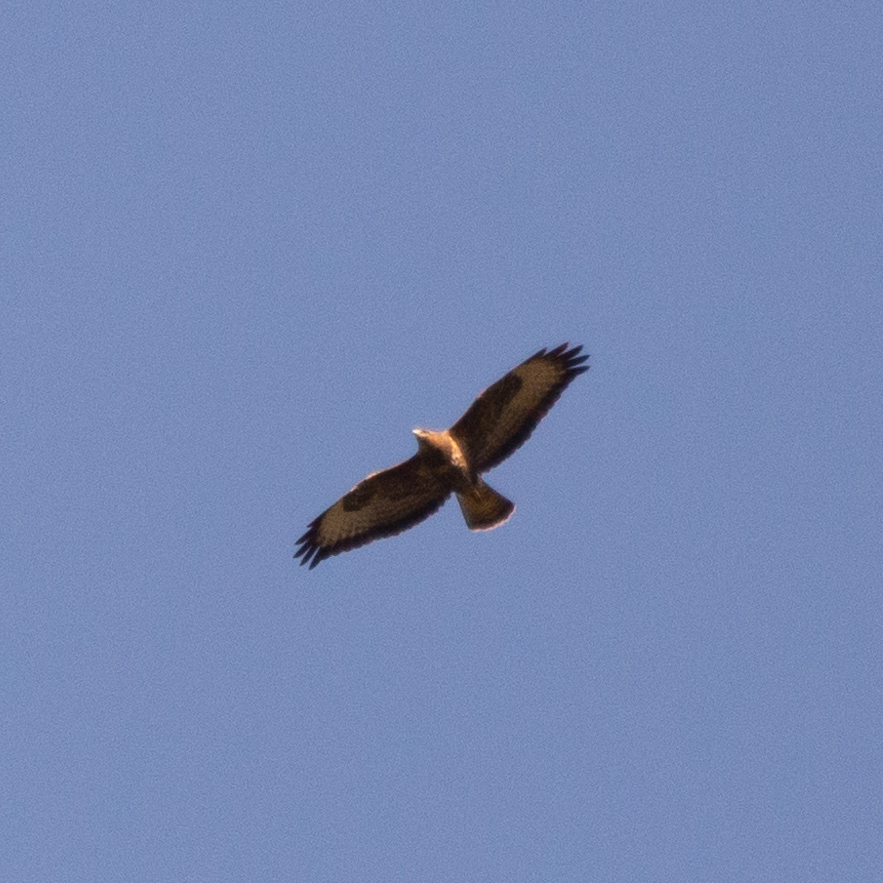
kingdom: Animalia
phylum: Chordata
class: Aves
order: Accipitriformes
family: Accipitridae
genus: Buteo
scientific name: Buteo buteo
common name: Common buzzard
